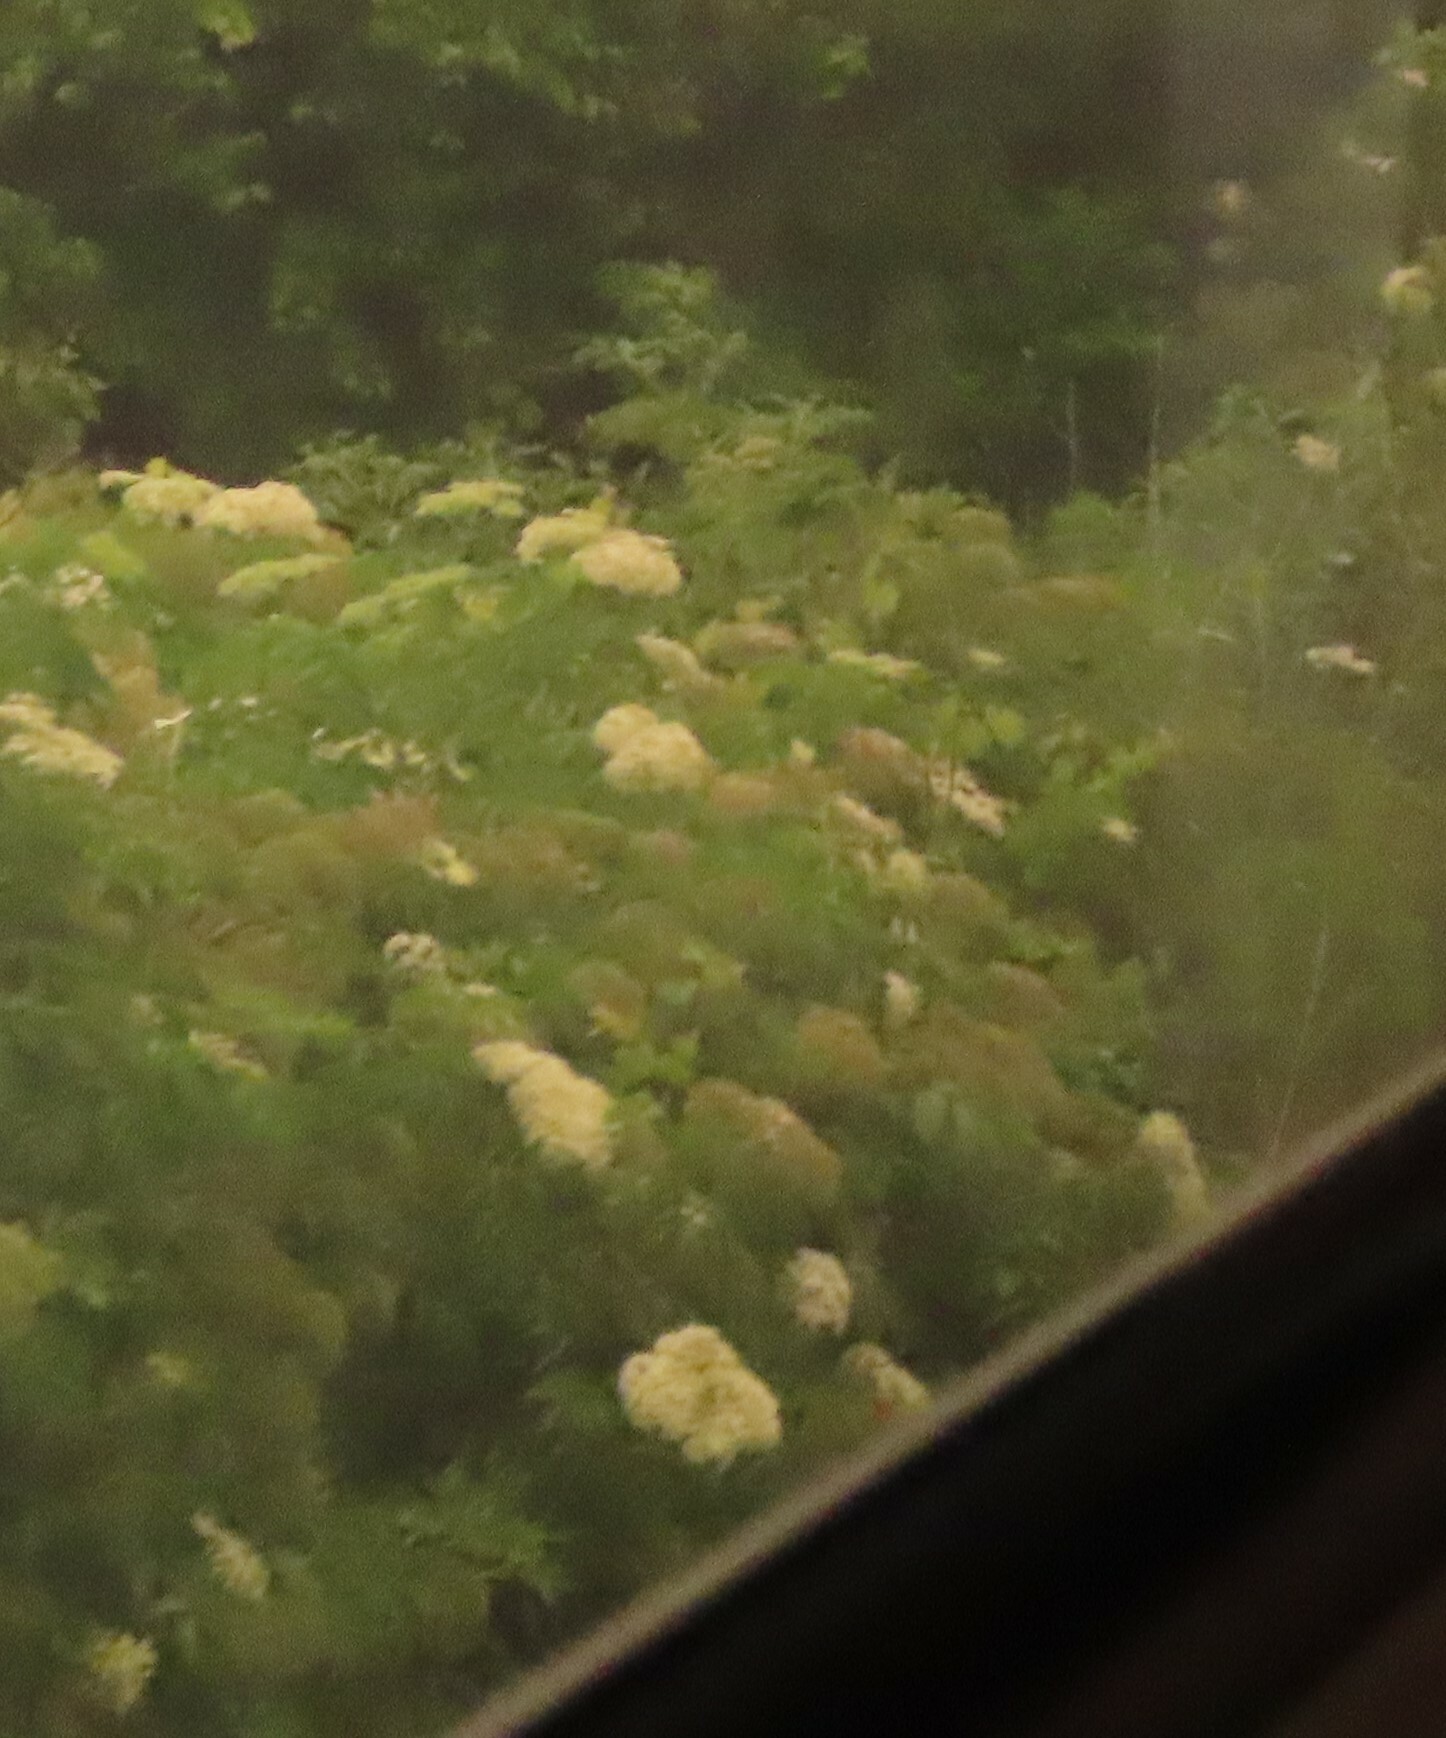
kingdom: Plantae
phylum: Tracheophyta
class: Magnoliopsida
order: Dipsacales
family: Viburnaceae
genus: Sambucus
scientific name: Sambucus canadensis
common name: American elder
